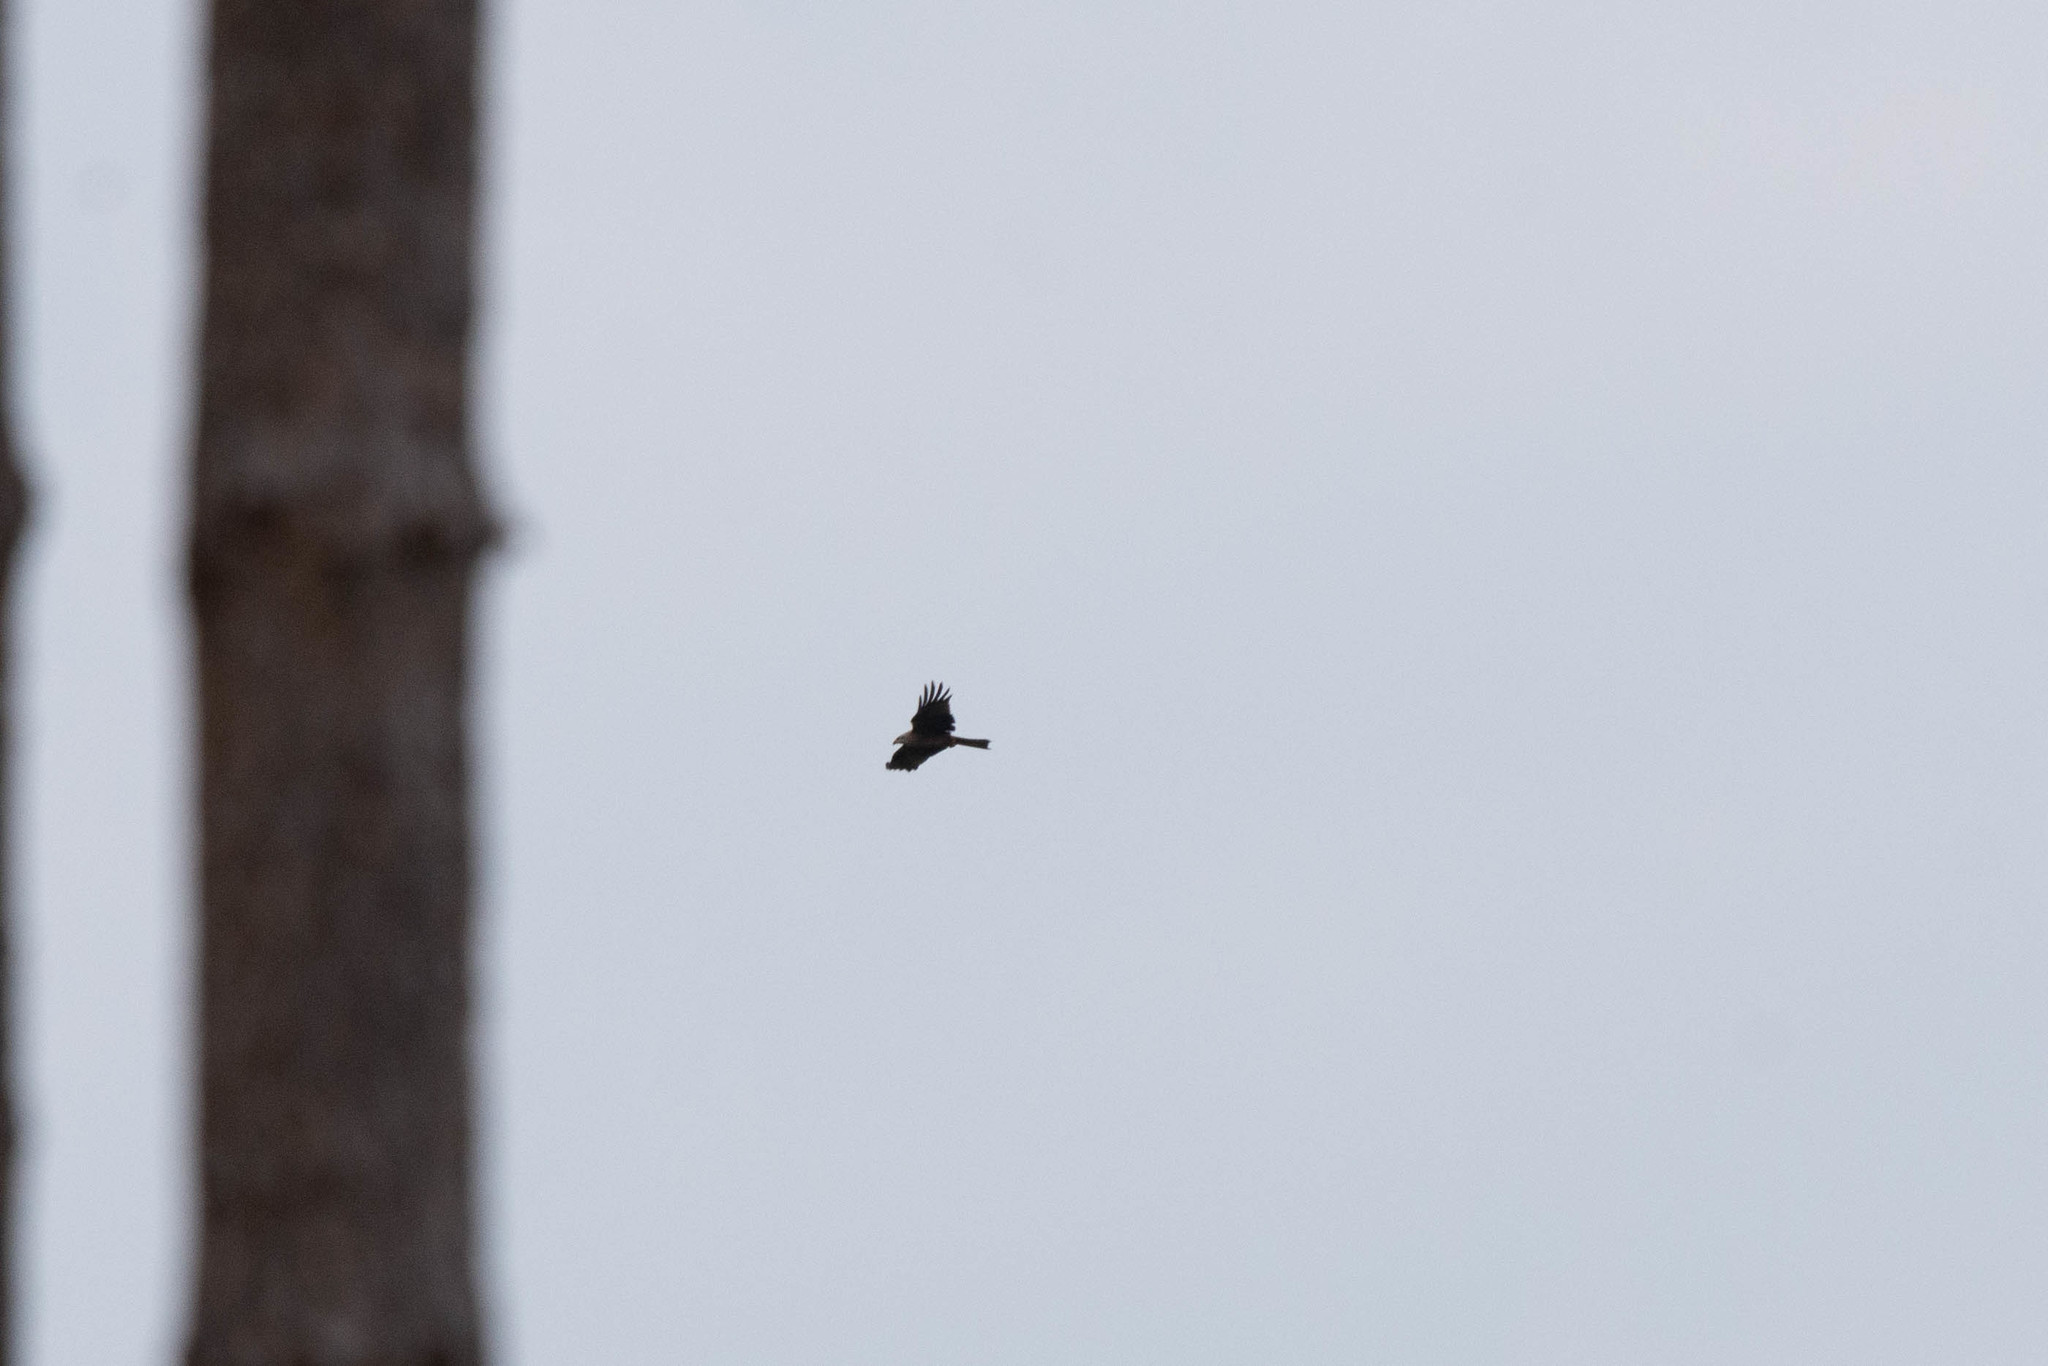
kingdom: Animalia
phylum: Chordata
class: Aves
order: Accipitriformes
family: Accipitridae
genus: Milvus
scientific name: Milvus migrans
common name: Black kite
